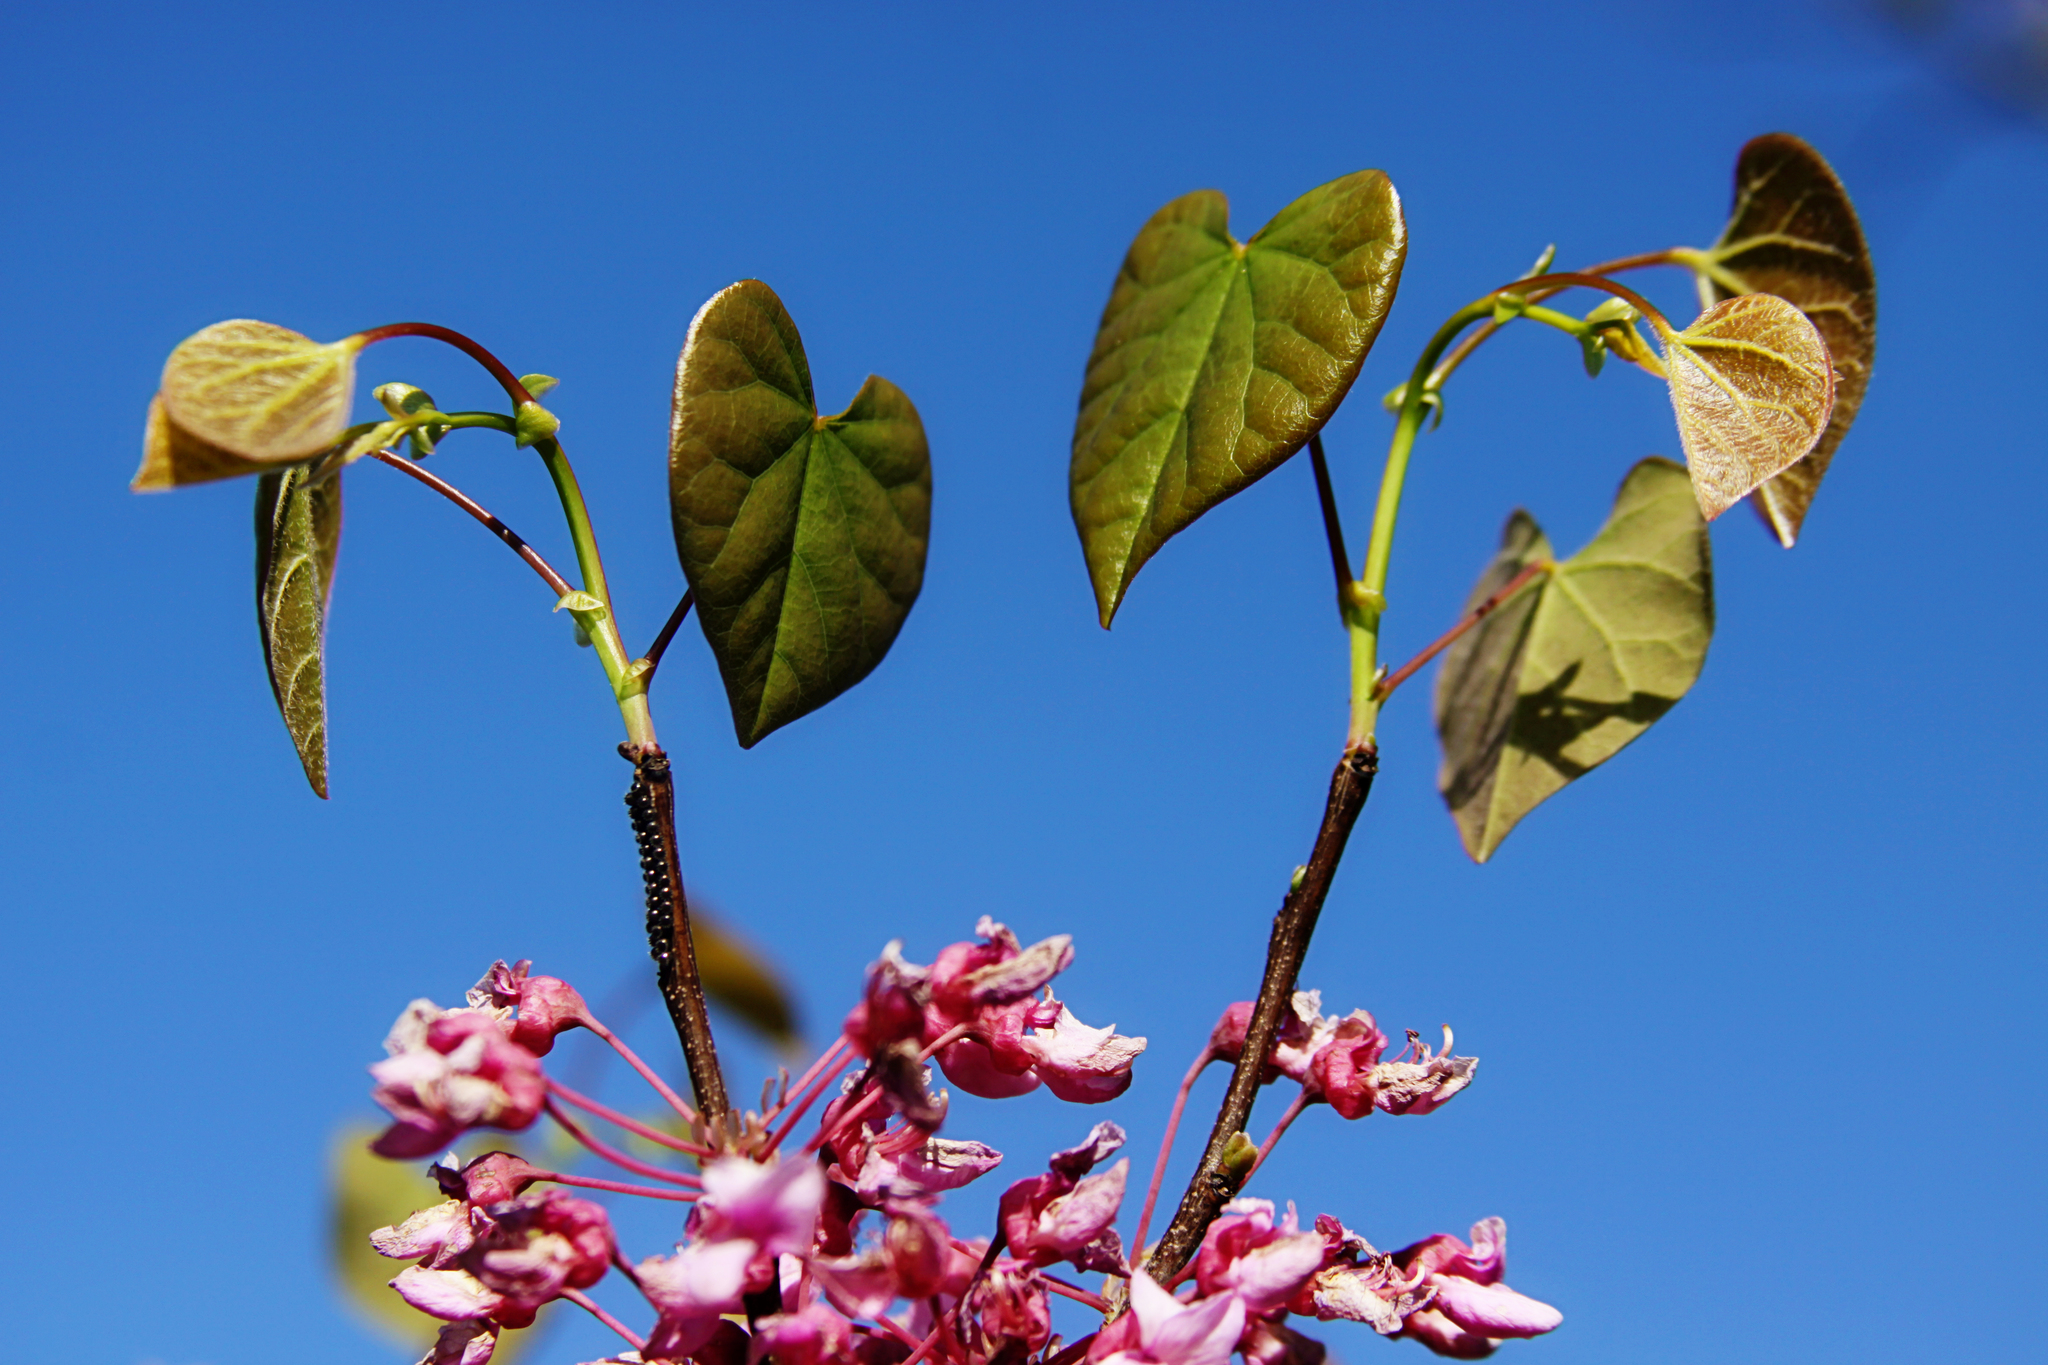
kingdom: Plantae
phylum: Tracheophyta
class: Magnoliopsida
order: Fabales
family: Fabaceae
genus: Cercis
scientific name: Cercis canadensis
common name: Eastern redbud
